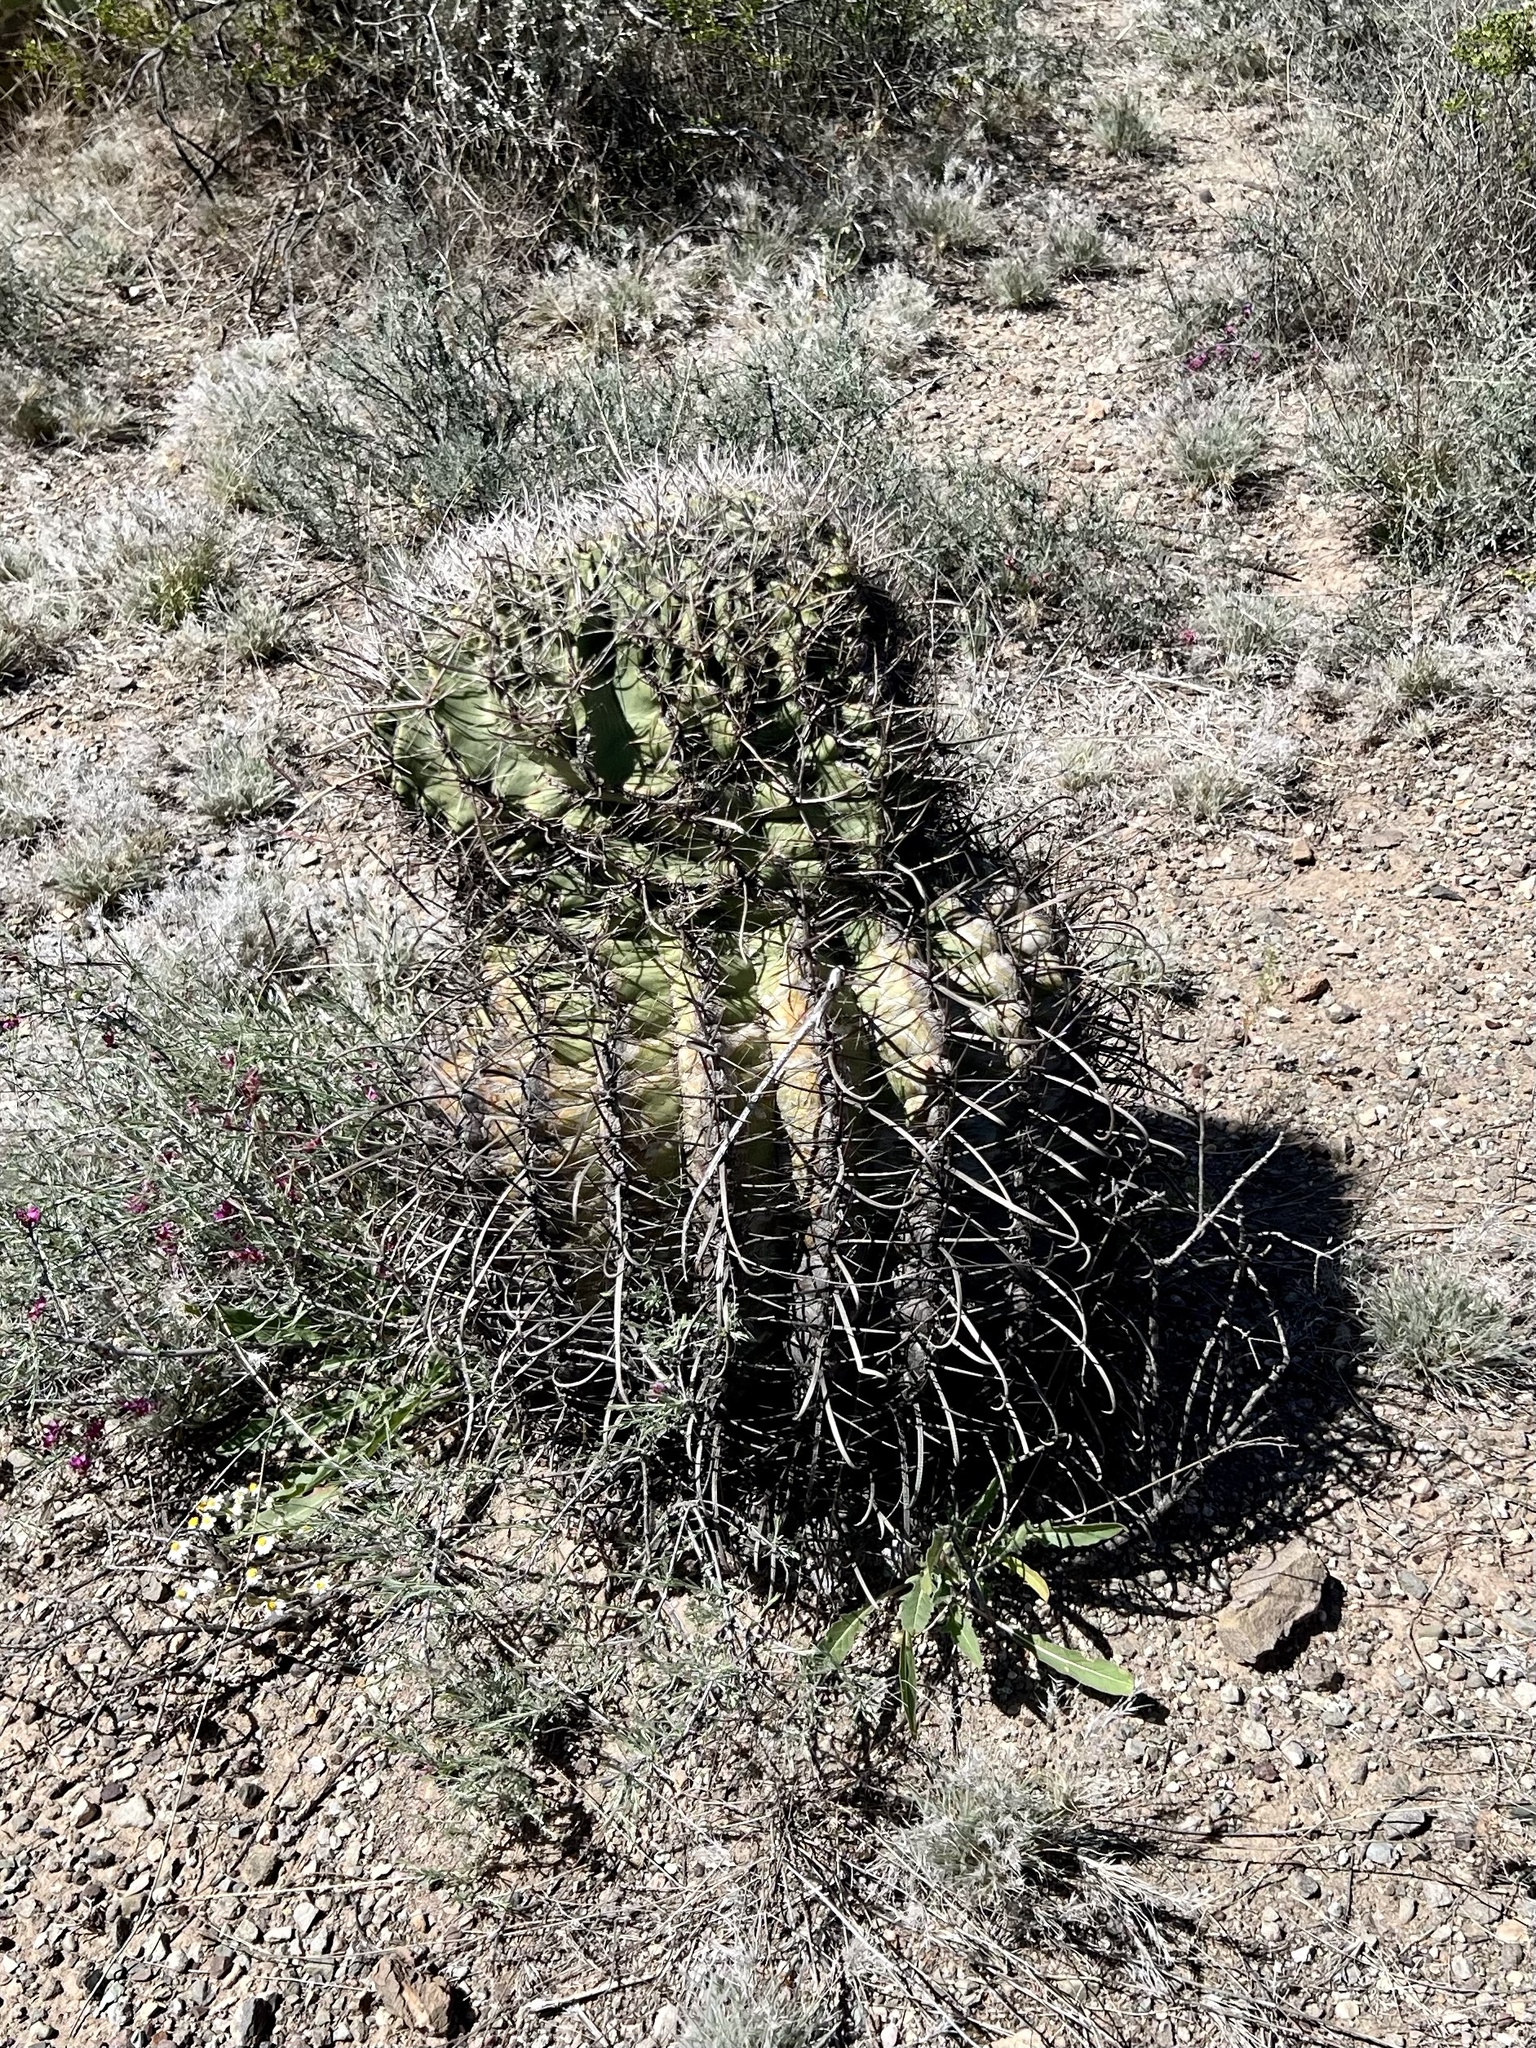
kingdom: Plantae
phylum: Tracheophyta
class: Magnoliopsida
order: Caryophyllales
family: Cactaceae
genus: Ferocactus
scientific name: Ferocactus wislizeni
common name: Candy barrel cactus
